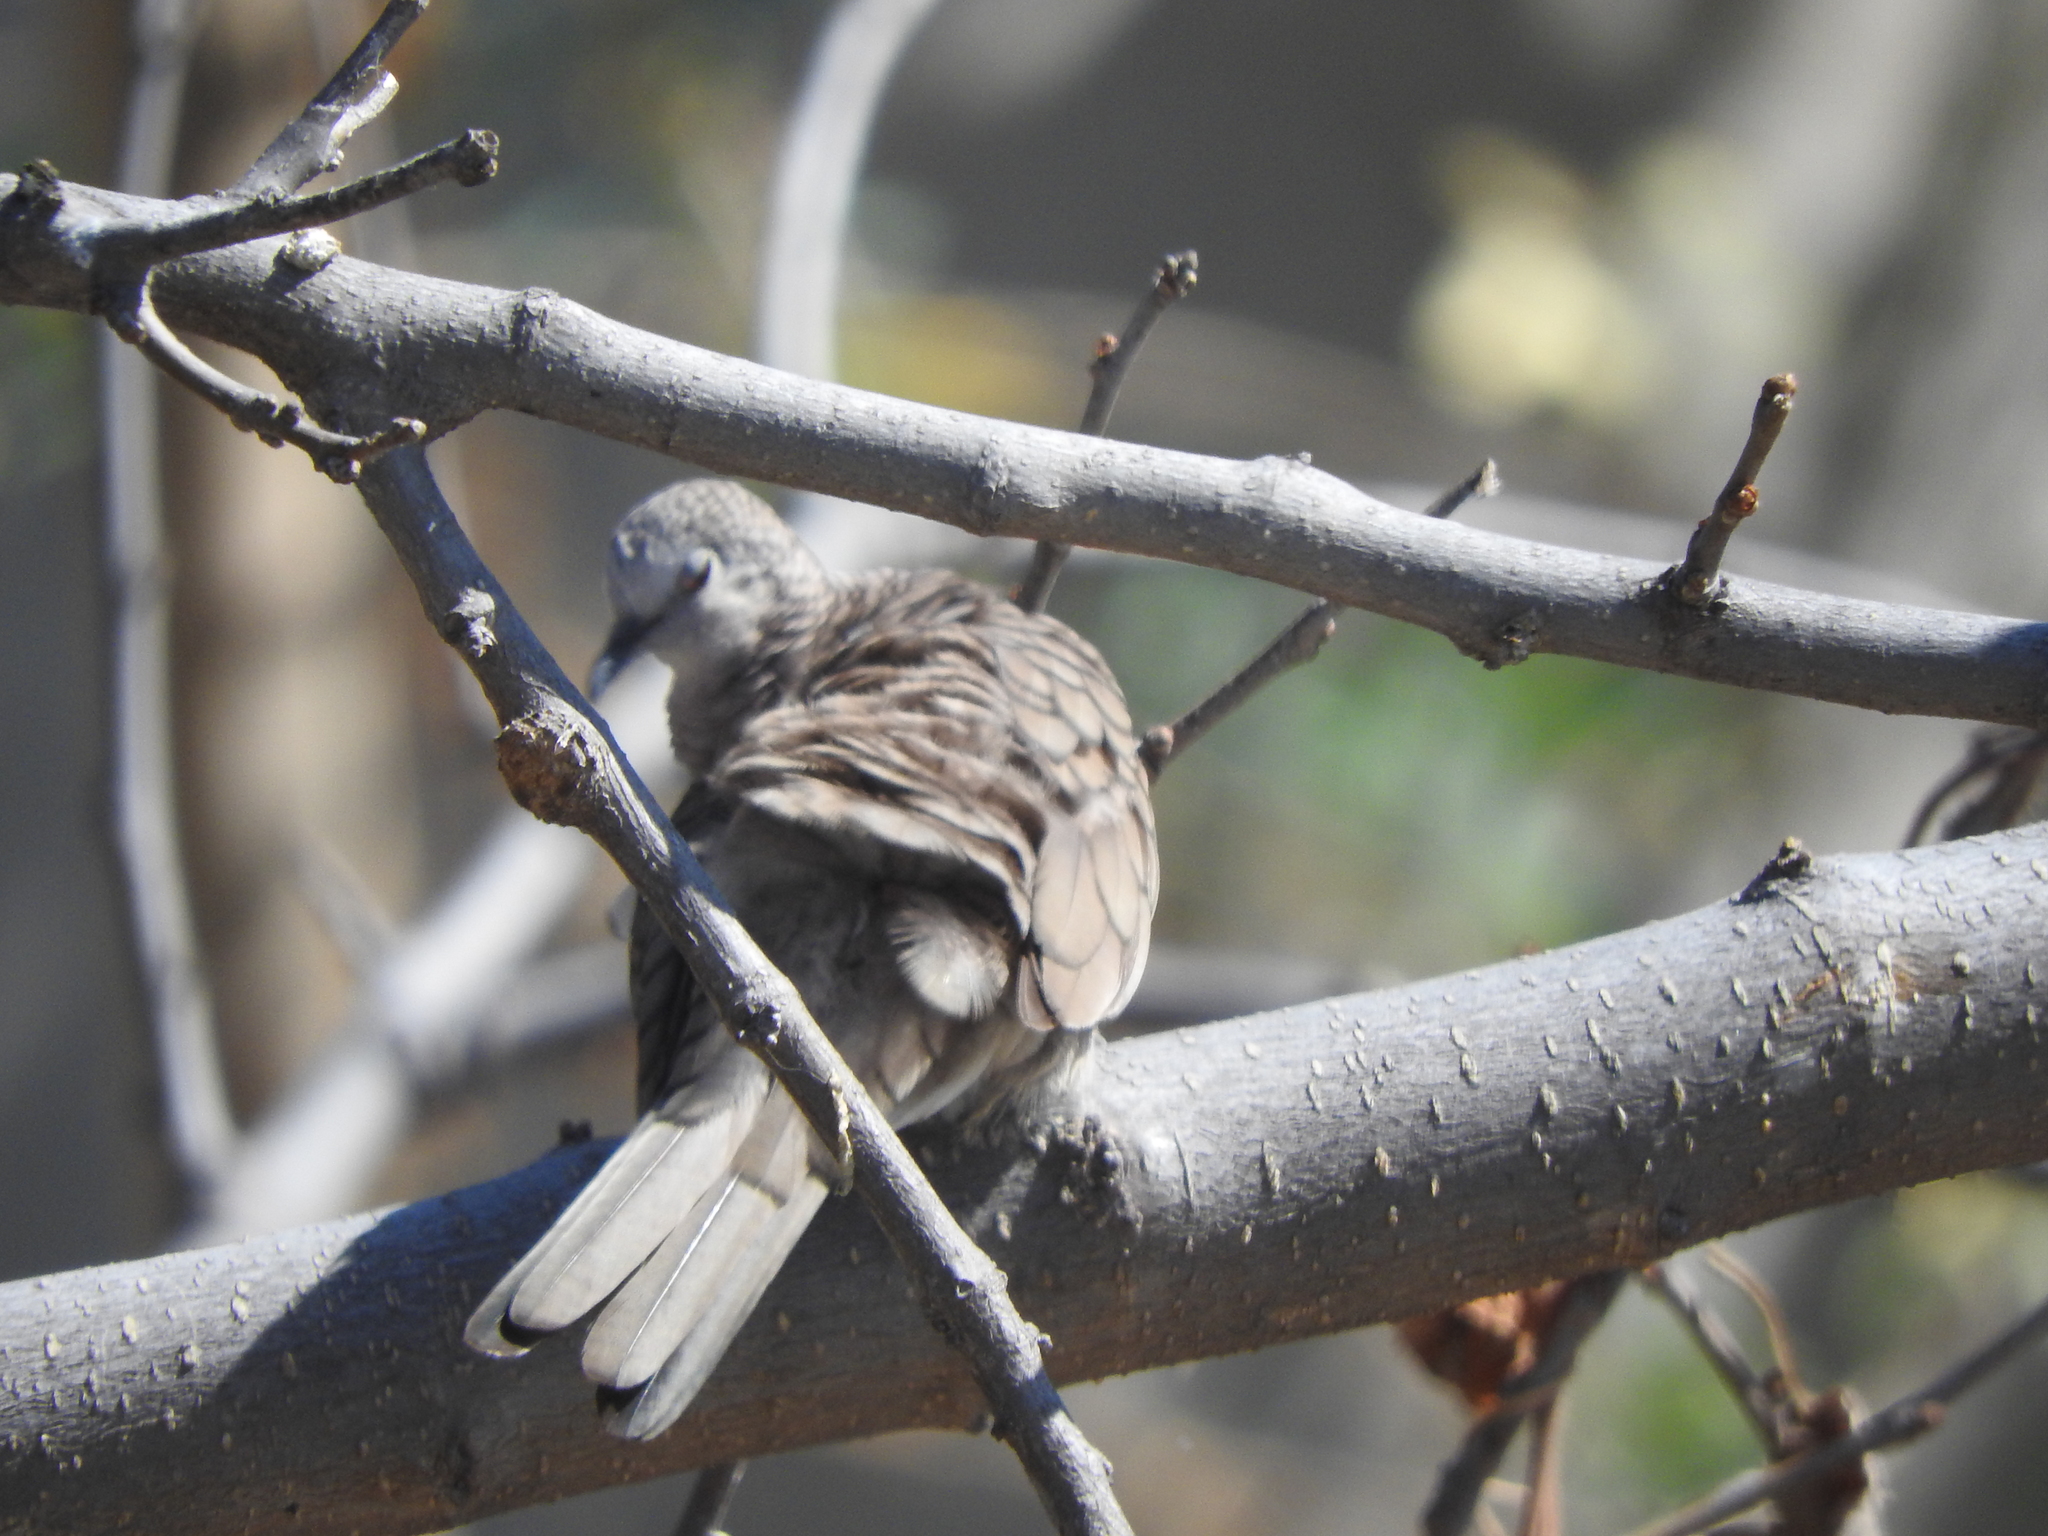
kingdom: Animalia
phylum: Chordata
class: Aves
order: Columbiformes
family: Columbidae
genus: Columbina
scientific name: Columbina inca
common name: Inca dove
